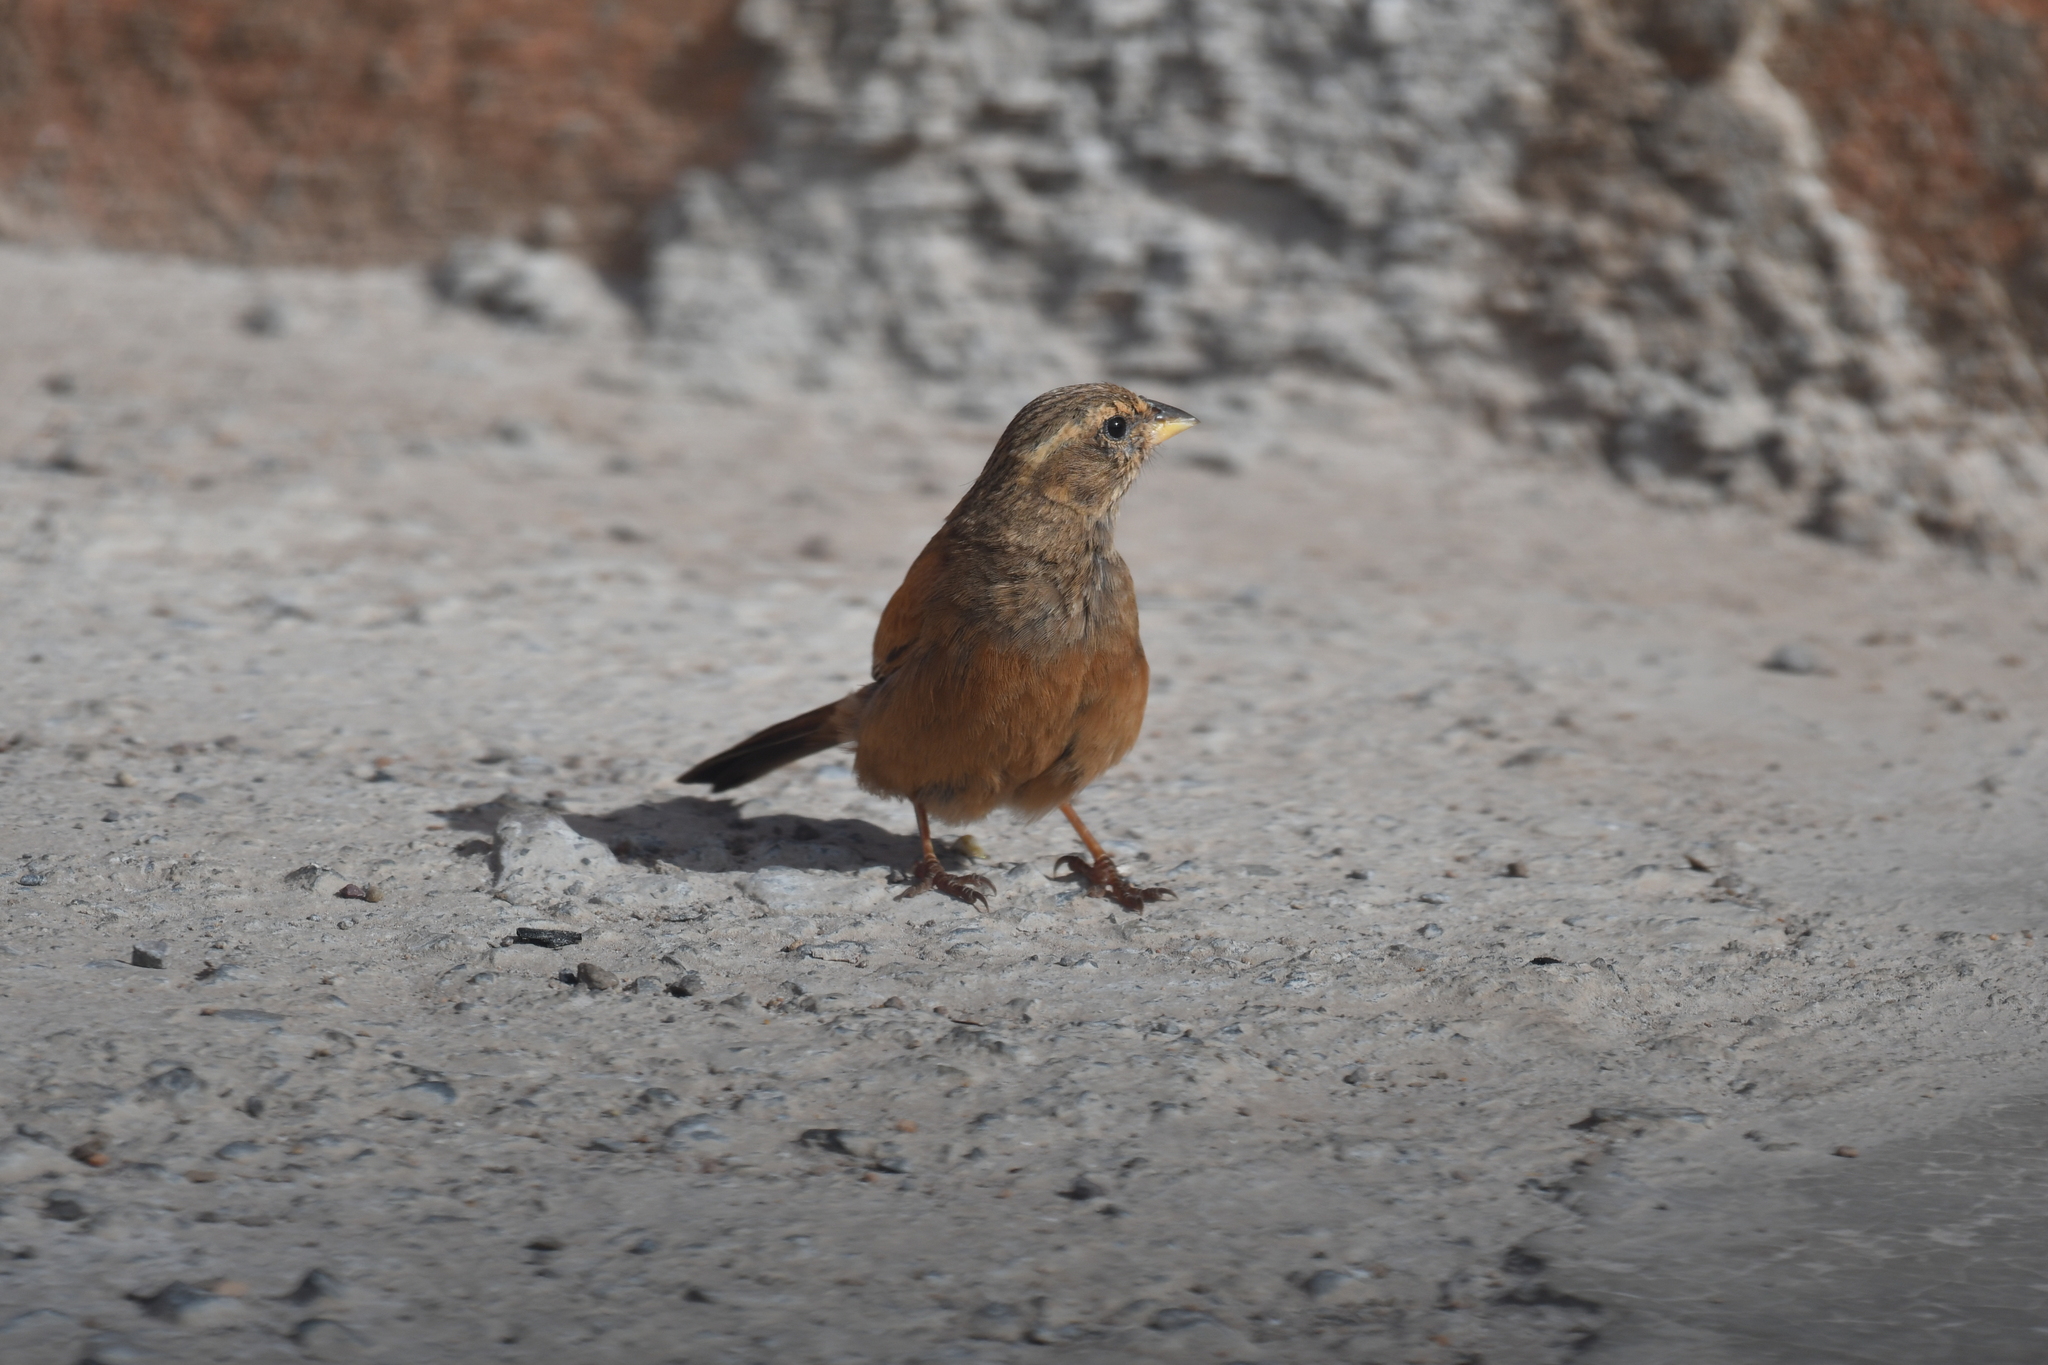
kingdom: Animalia
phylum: Chordata
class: Aves
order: Passeriformes
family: Emberizidae
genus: Emberiza
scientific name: Emberiza sahari
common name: House bunting
